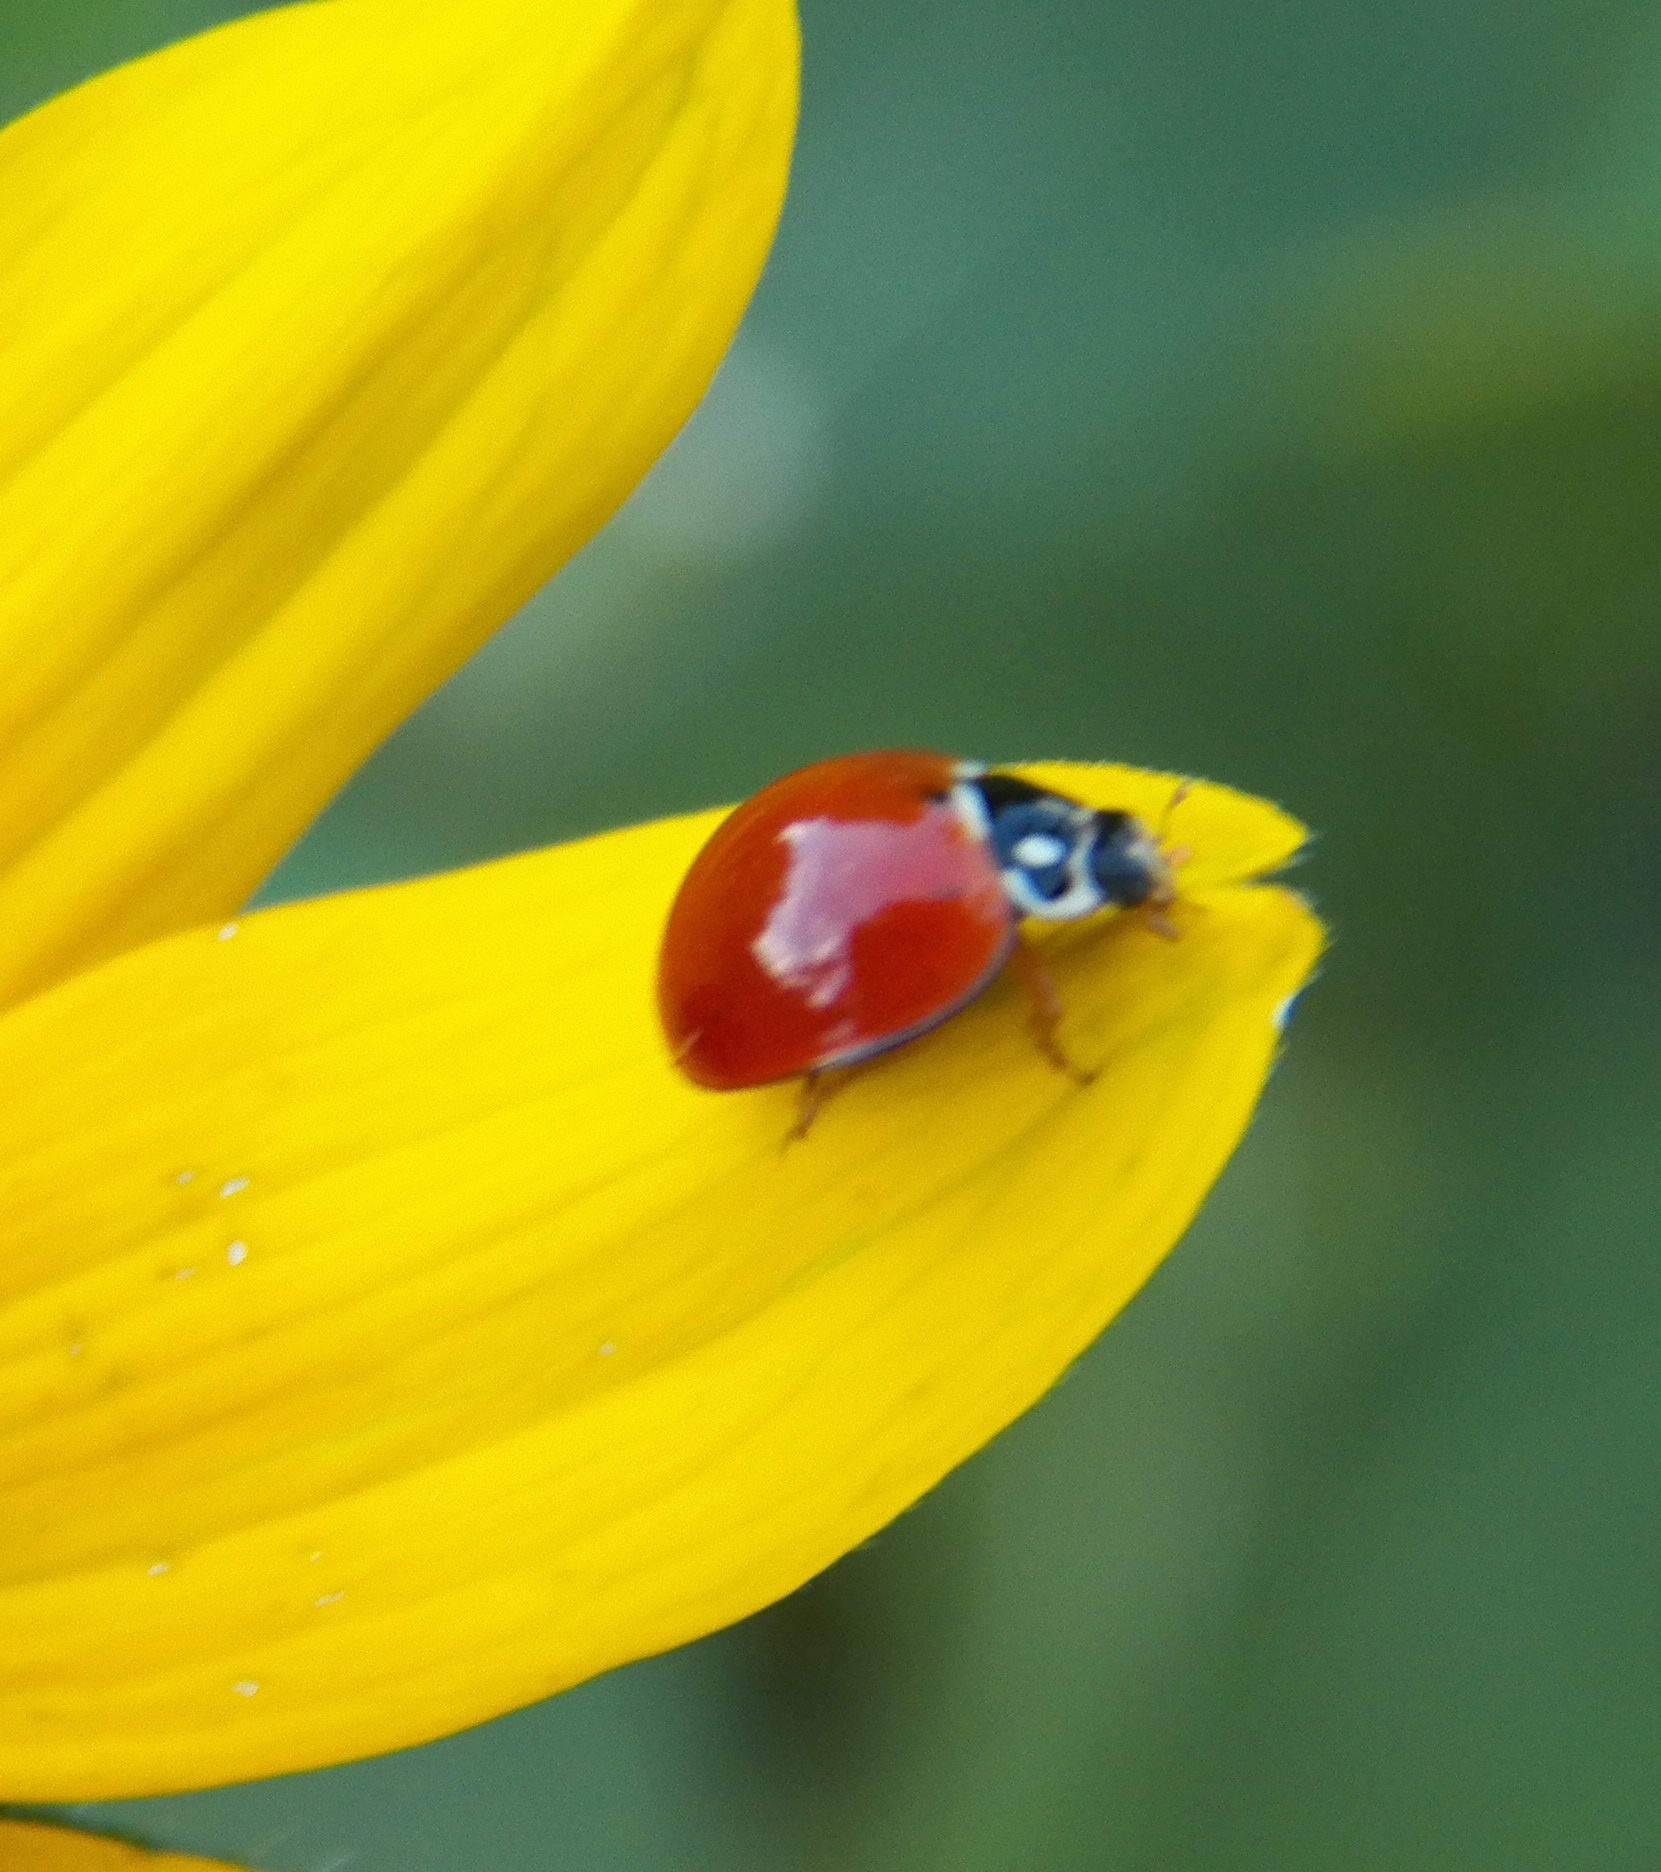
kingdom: Animalia
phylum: Arthropoda
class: Insecta
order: Coleoptera
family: Coccinellidae
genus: Cycloneda
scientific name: Cycloneda sanguinea
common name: Ladybird beetle
